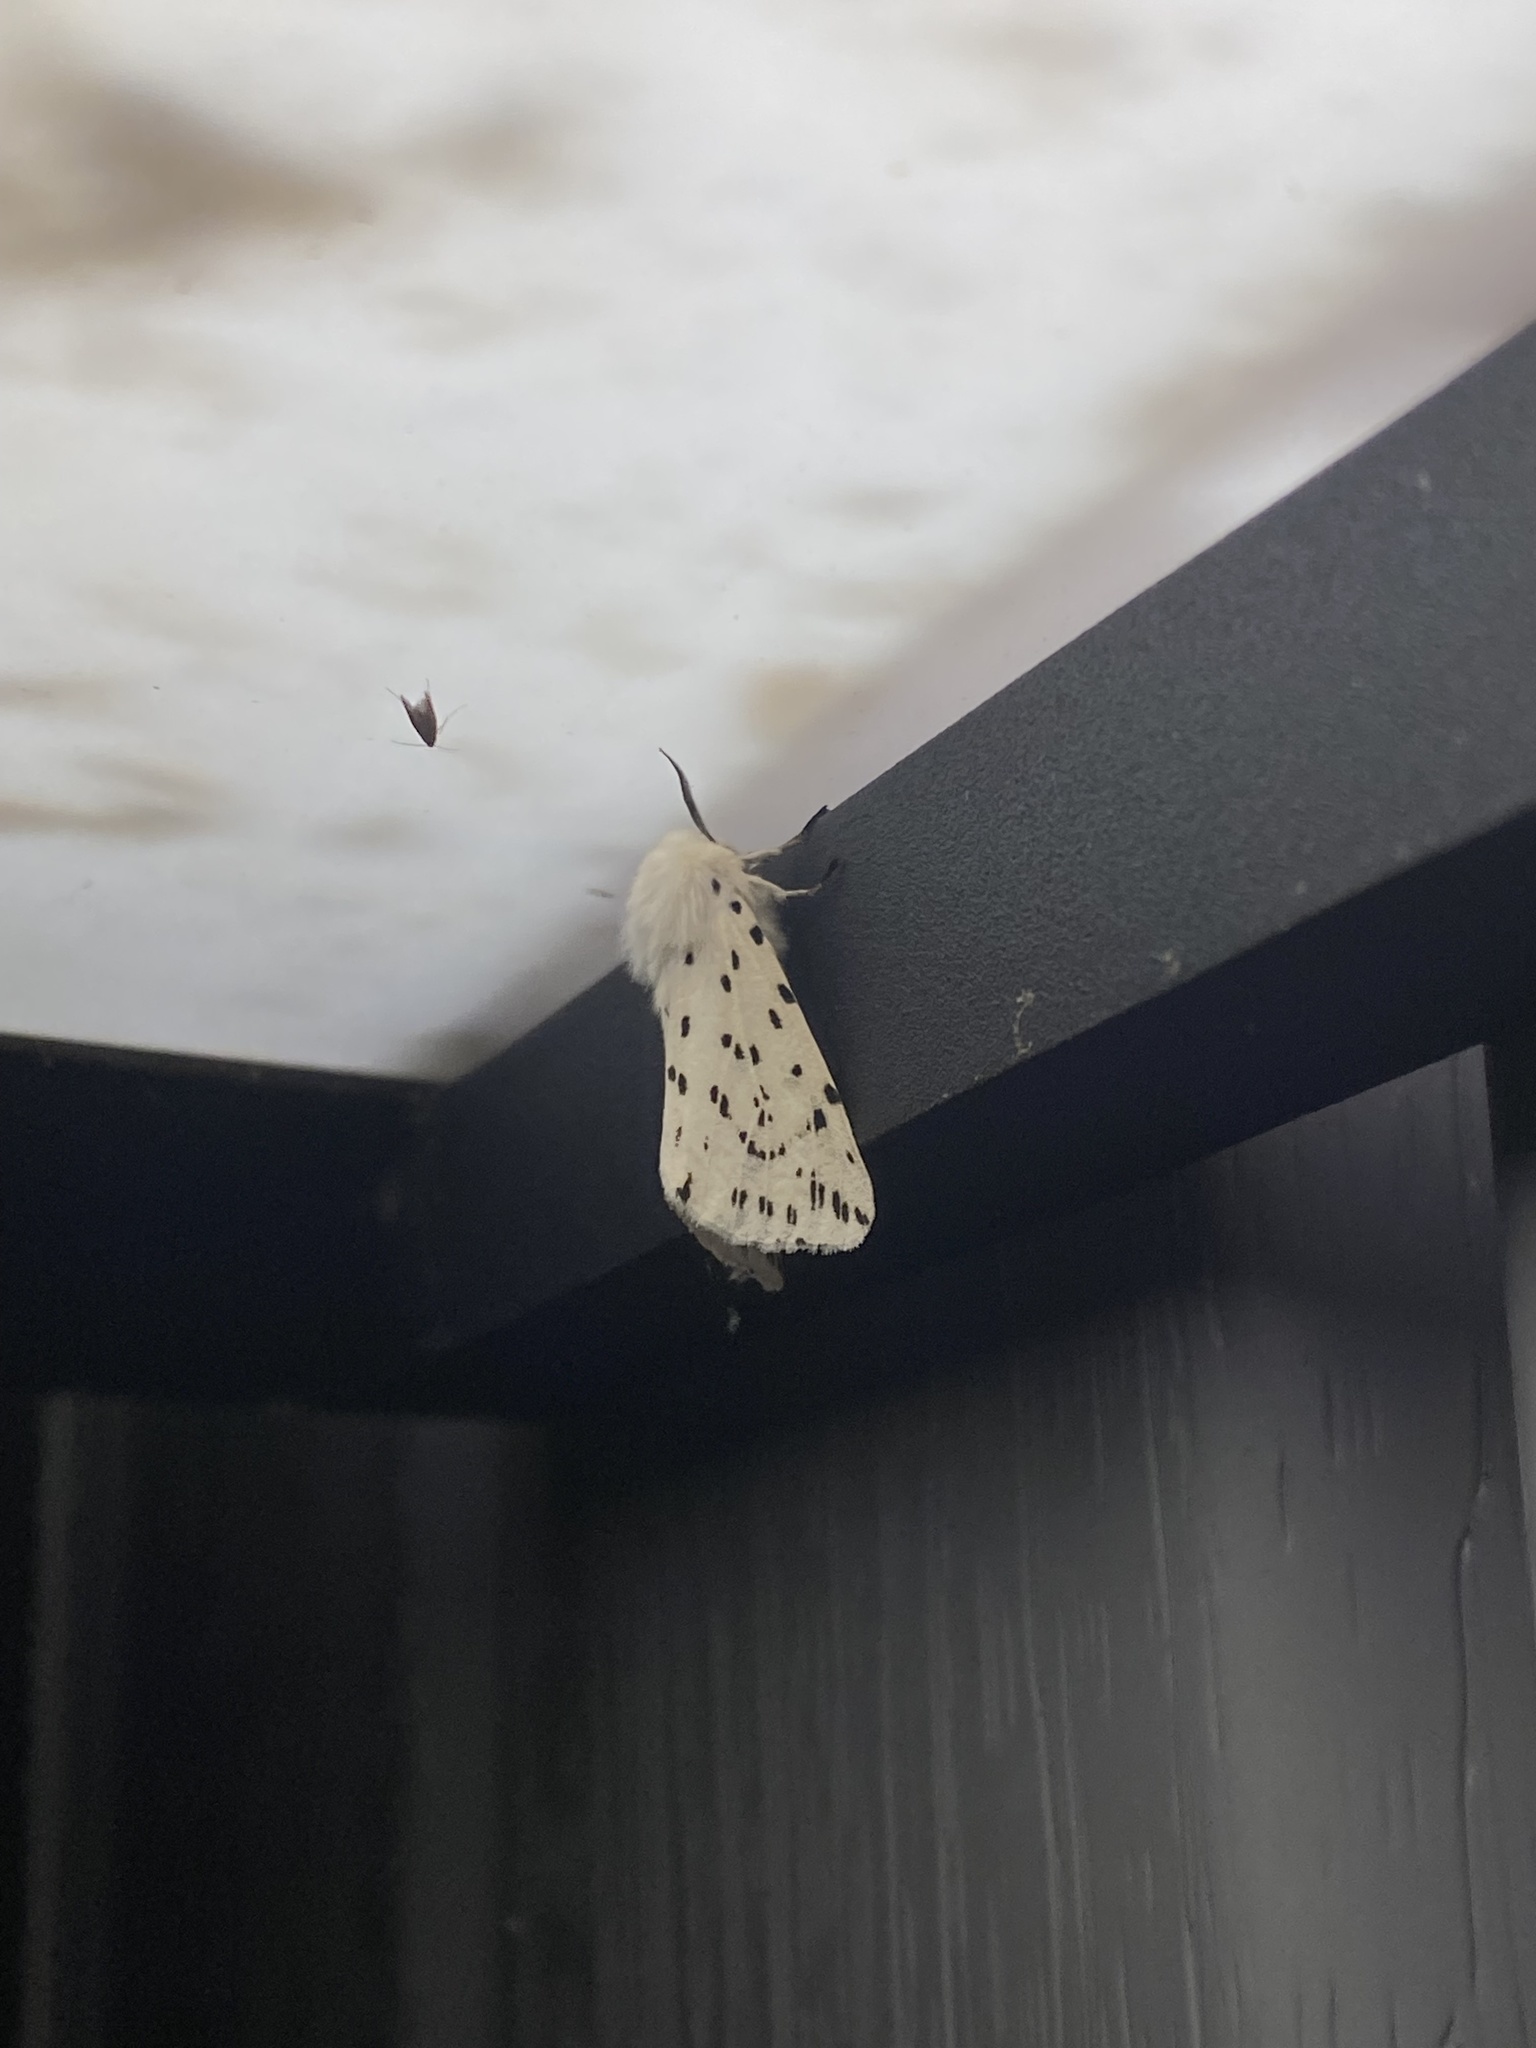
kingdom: Animalia
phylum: Arthropoda
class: Insecta
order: Lepidoptera
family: Erebidae
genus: Spilosoma
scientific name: Spilosoma lubricipeda
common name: White ermine
